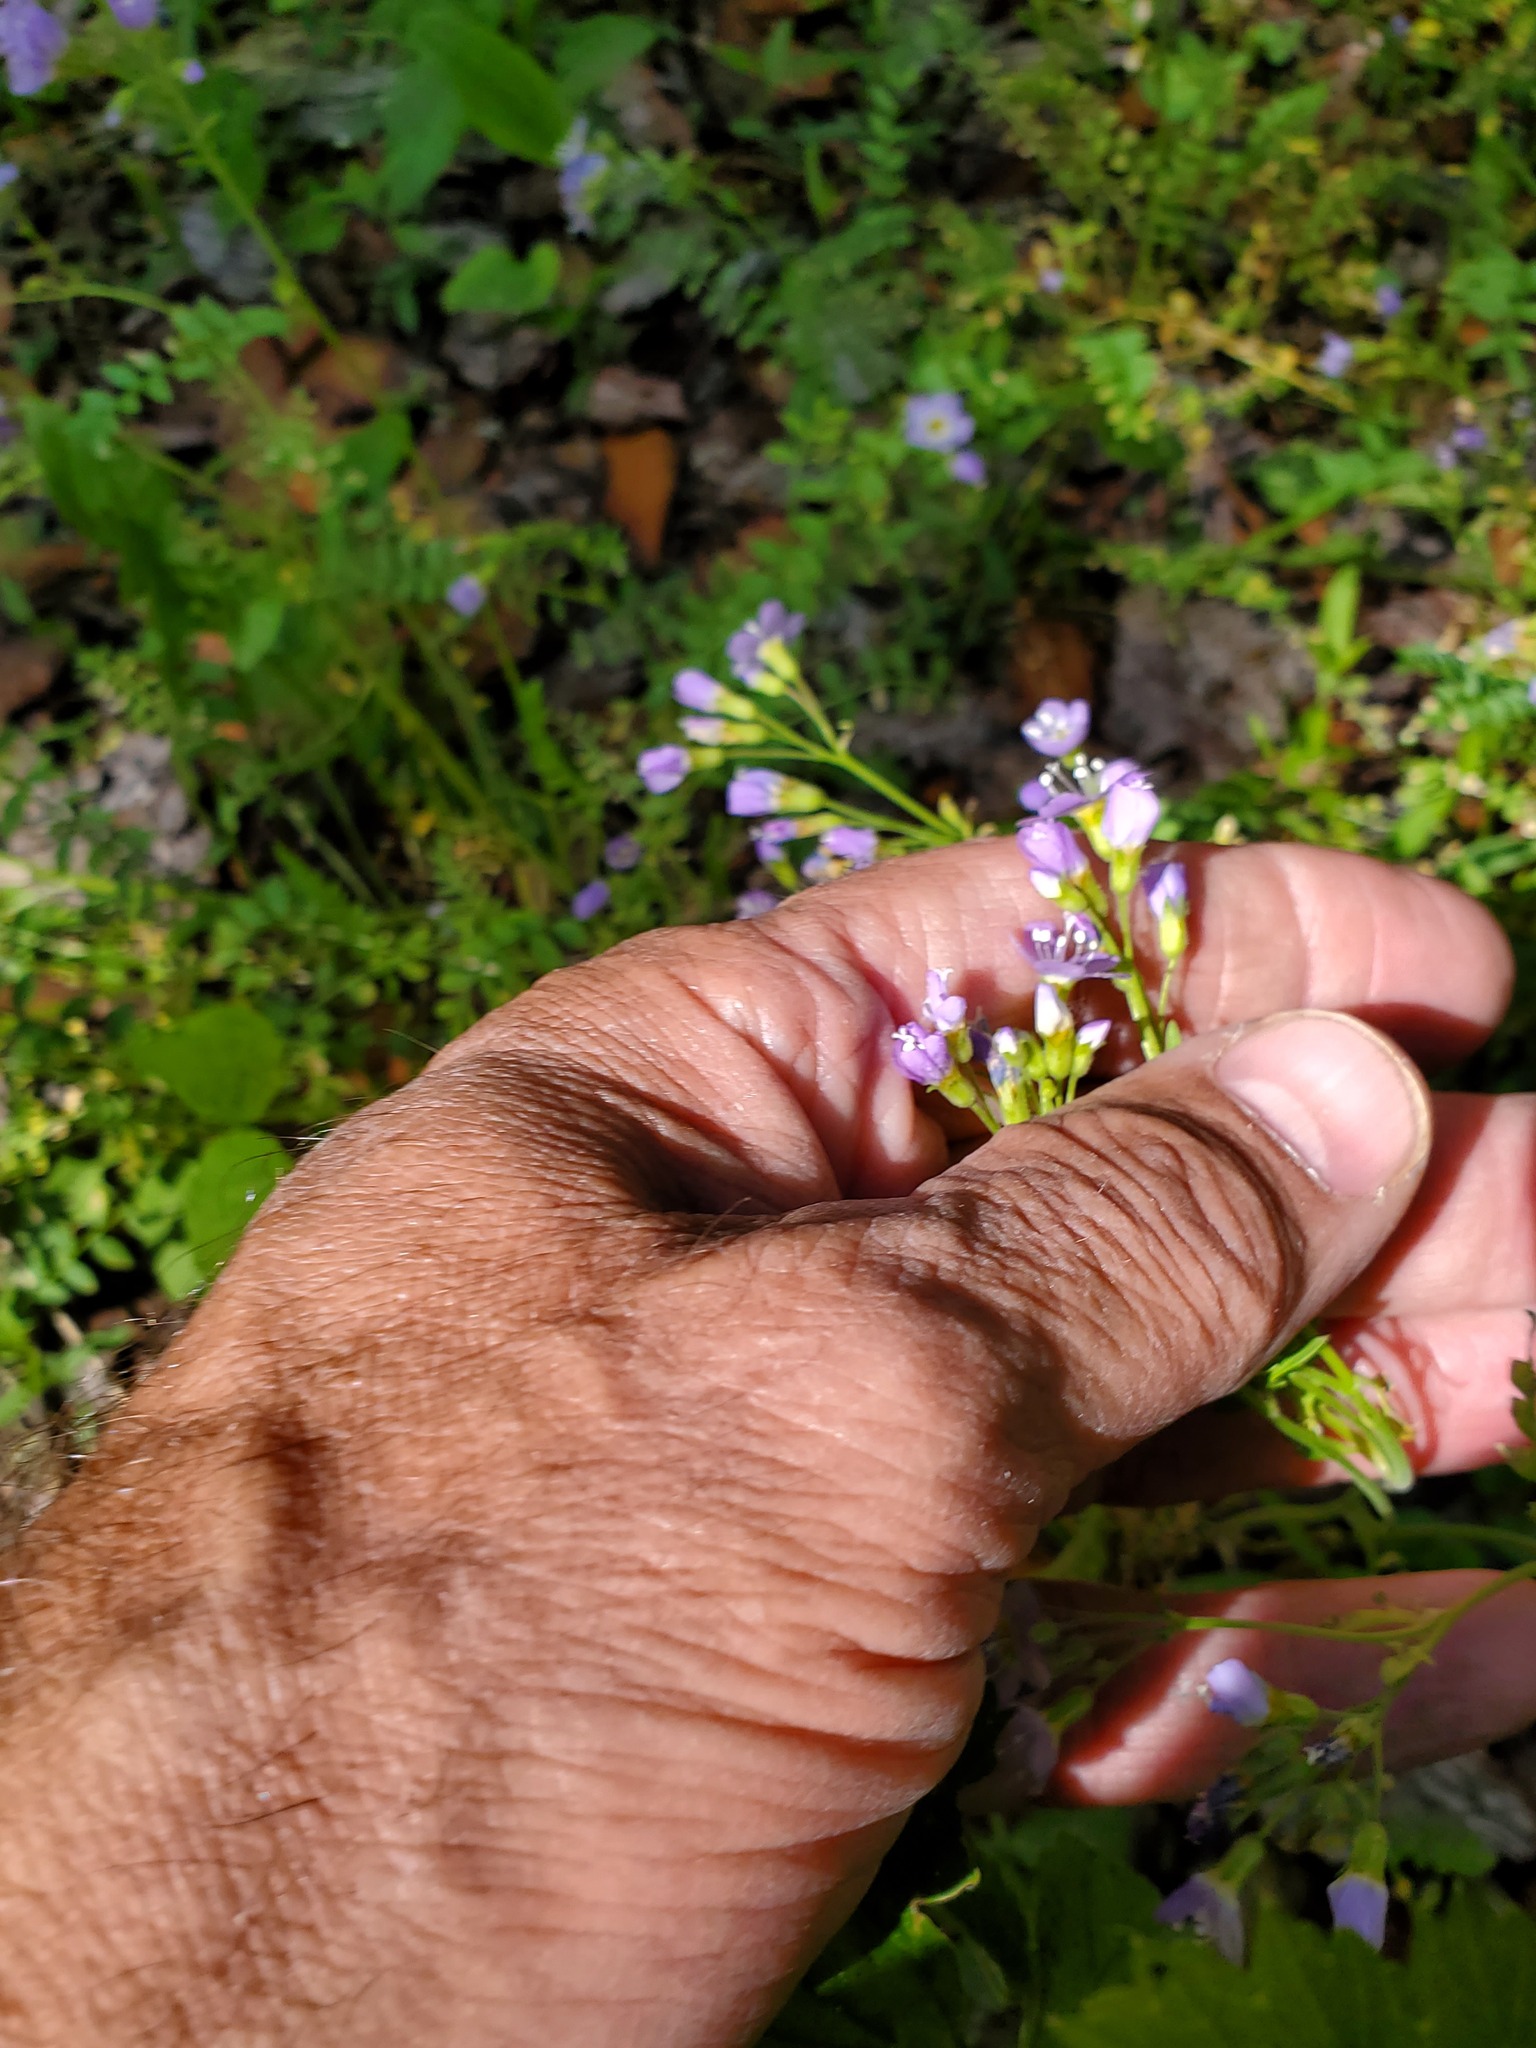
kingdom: Plantae
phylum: Tracheophyta
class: Magnoliopsida
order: Ericales
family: Polemoniaceae
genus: Polemonium
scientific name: Polemonium pulcherrimum
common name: Short jacob's-ladder
